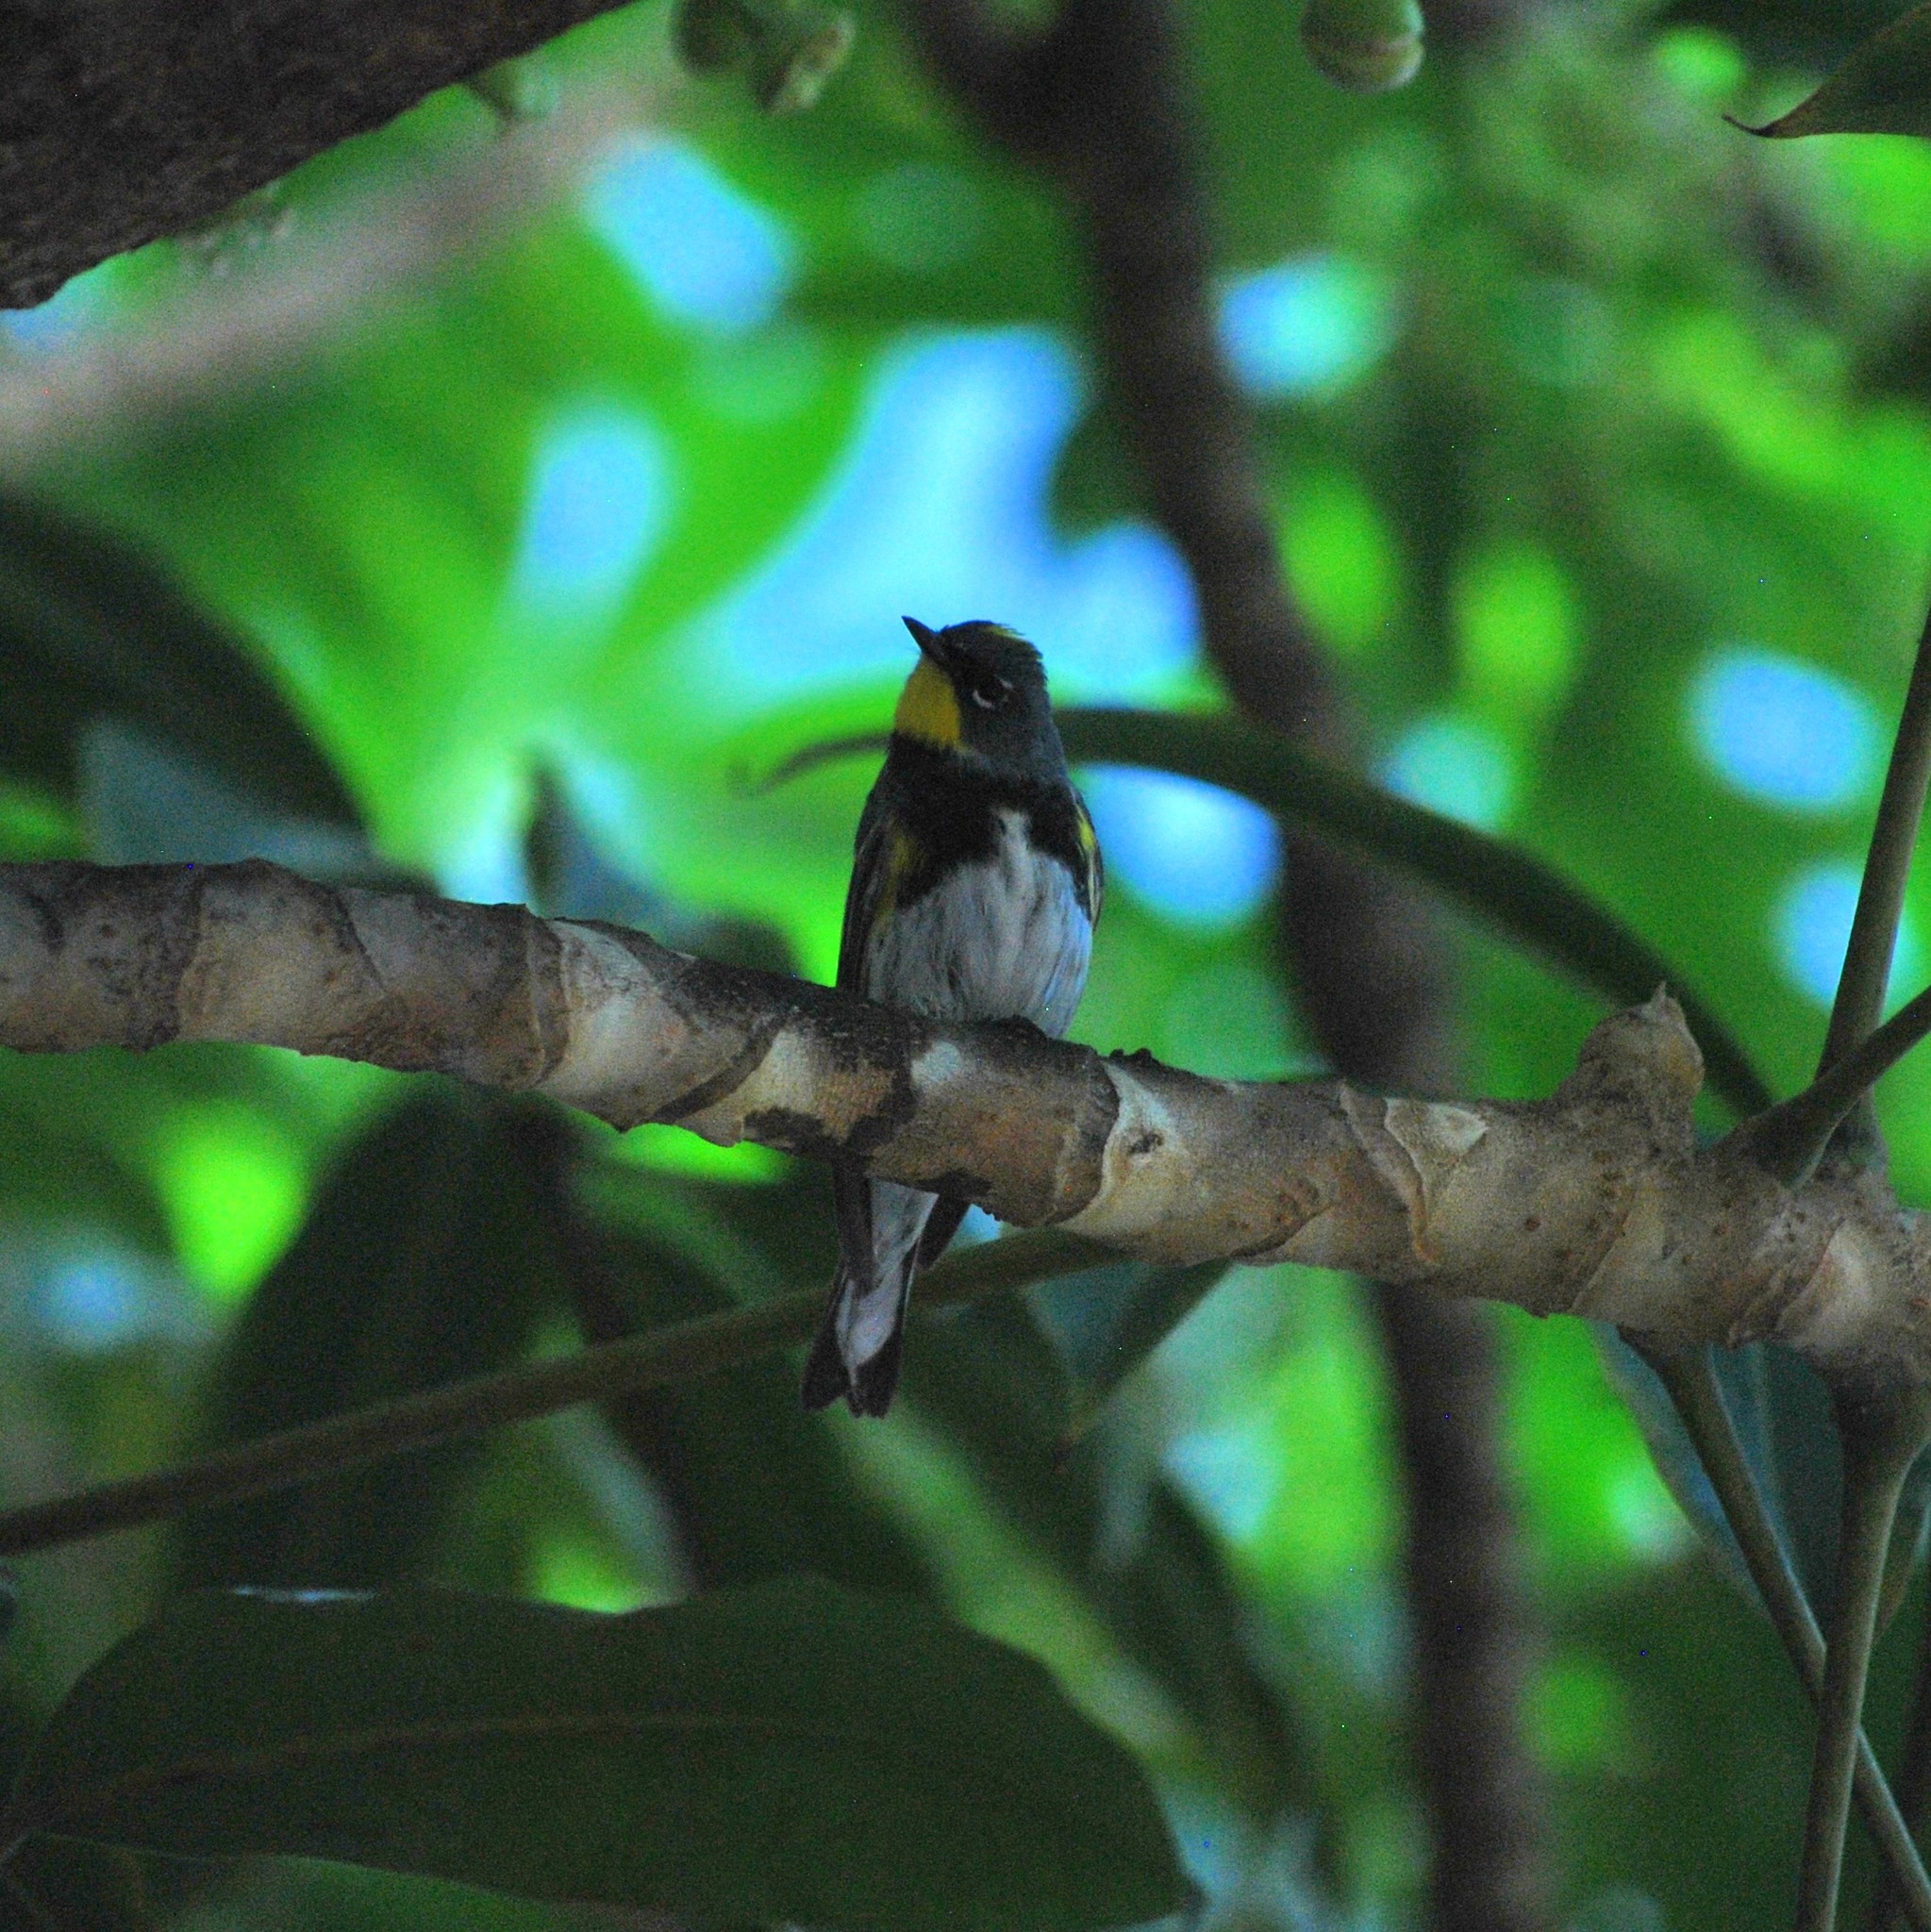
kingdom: Animalia
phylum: Chordata
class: Aves
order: Passeriformes
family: Parulidae
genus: Setophaga
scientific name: Setophaga auduboni
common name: Audubon's warbler
